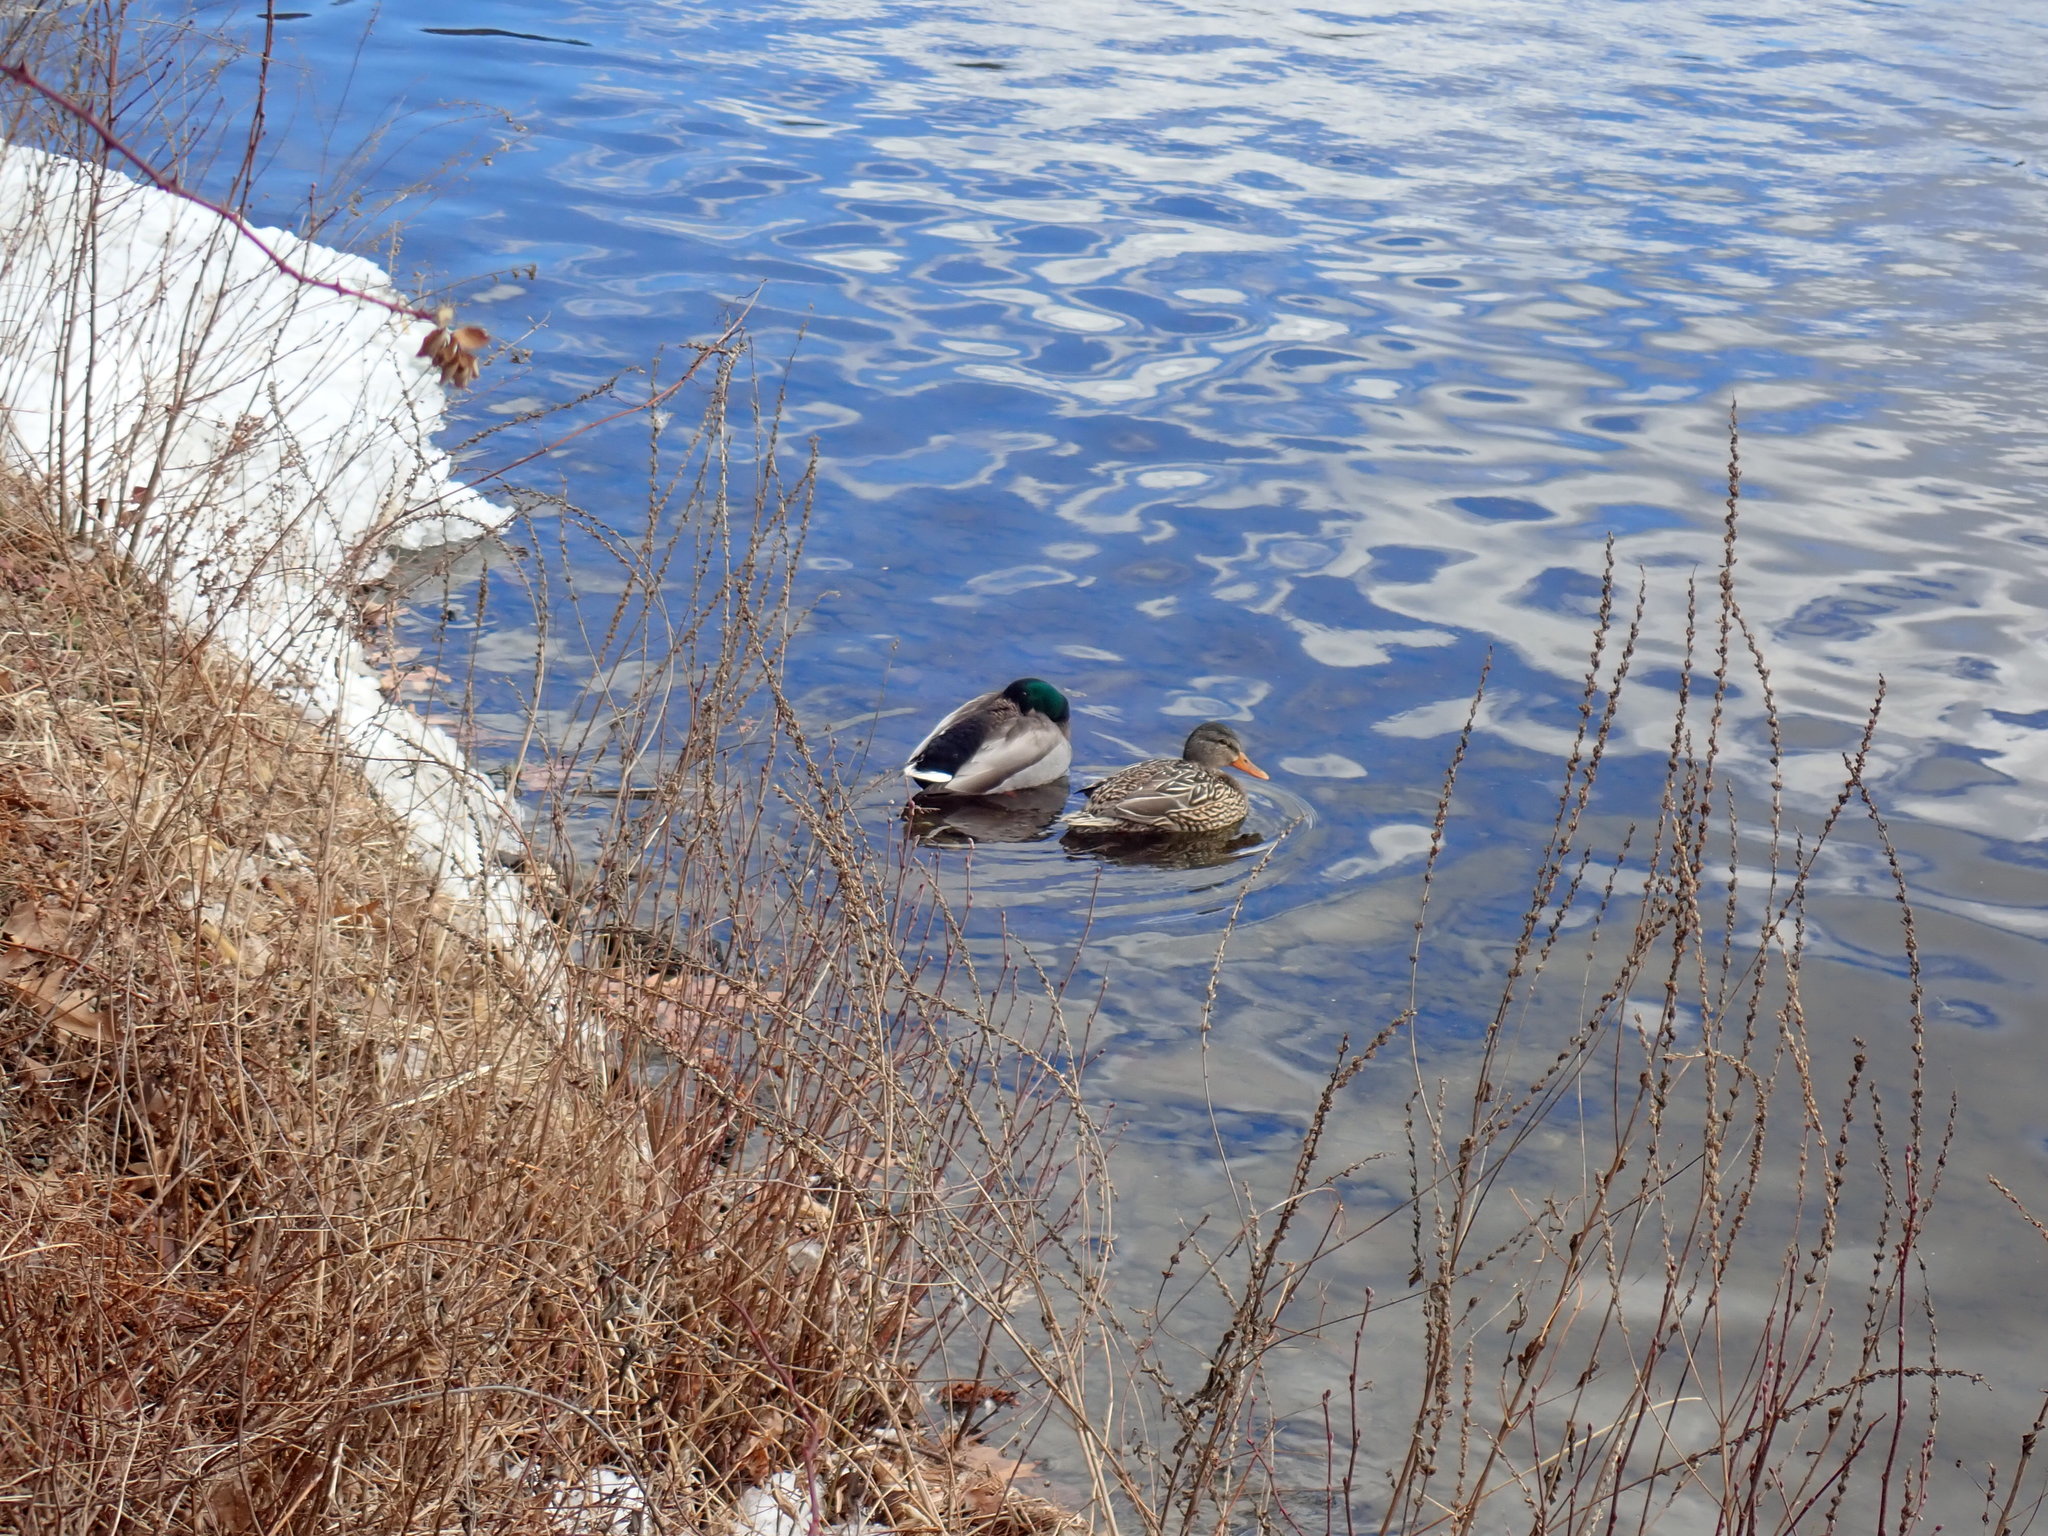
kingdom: Animalia
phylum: Chordata
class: Aves
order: Anseriformes
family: Anatidae
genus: Anas
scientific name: Anas platyrhynchos
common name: Mallard
